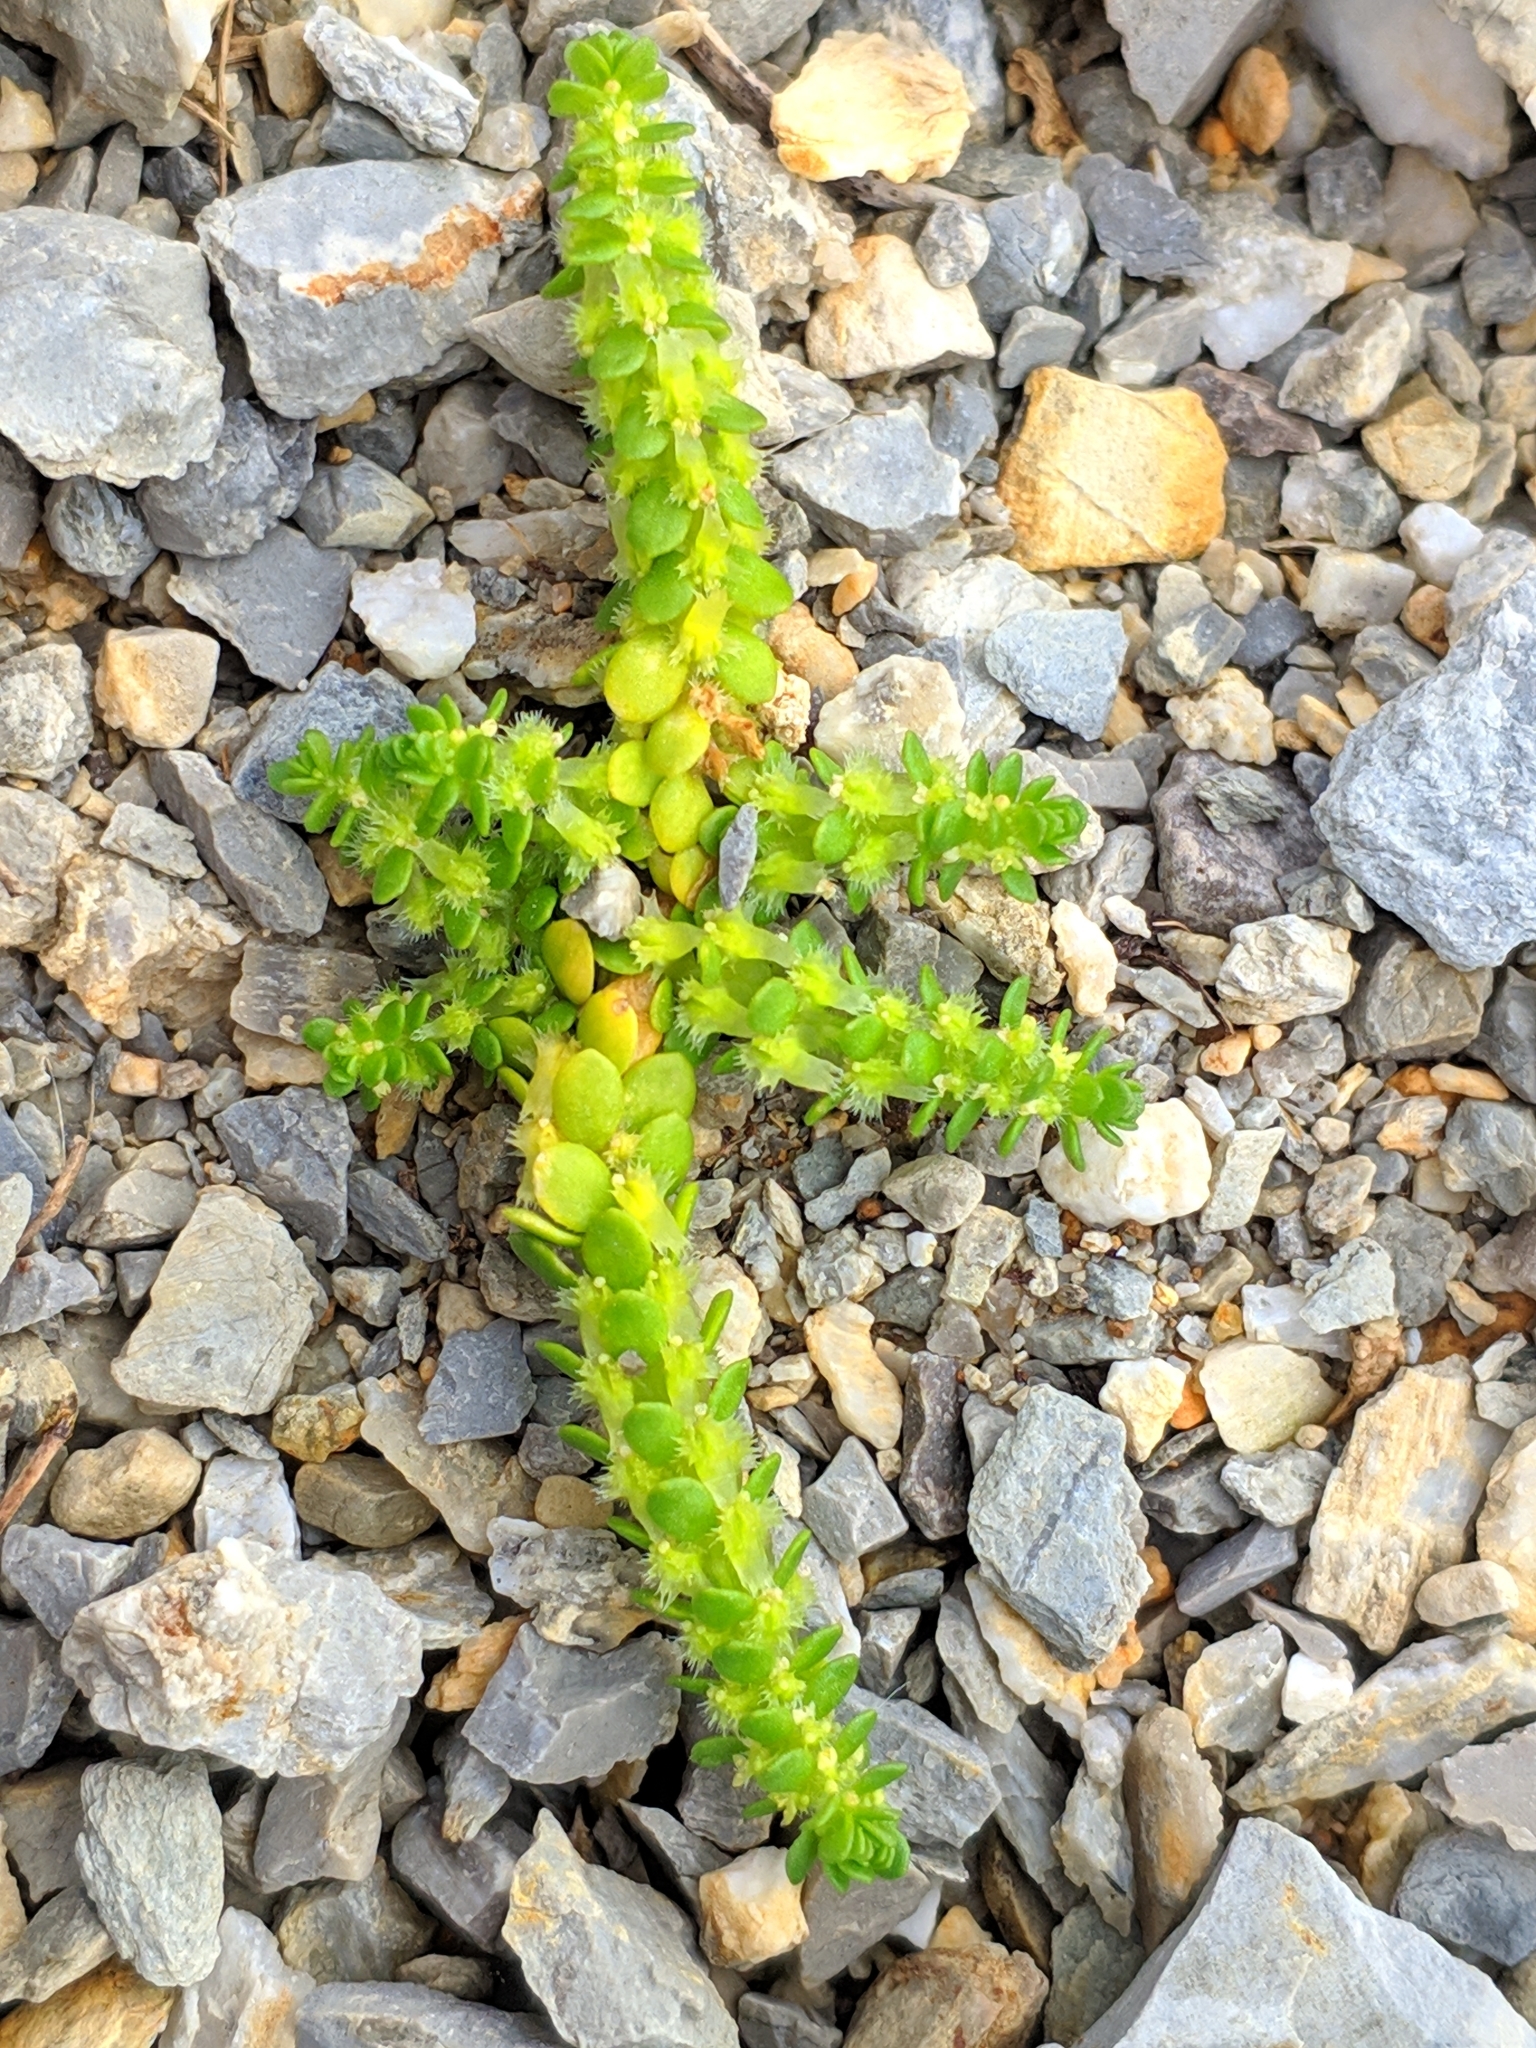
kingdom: Plantae
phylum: Tracheophyta
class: Magnoliopsida
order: Gentianales
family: Rubiaceae
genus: Valantia
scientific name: Valantia muralis
